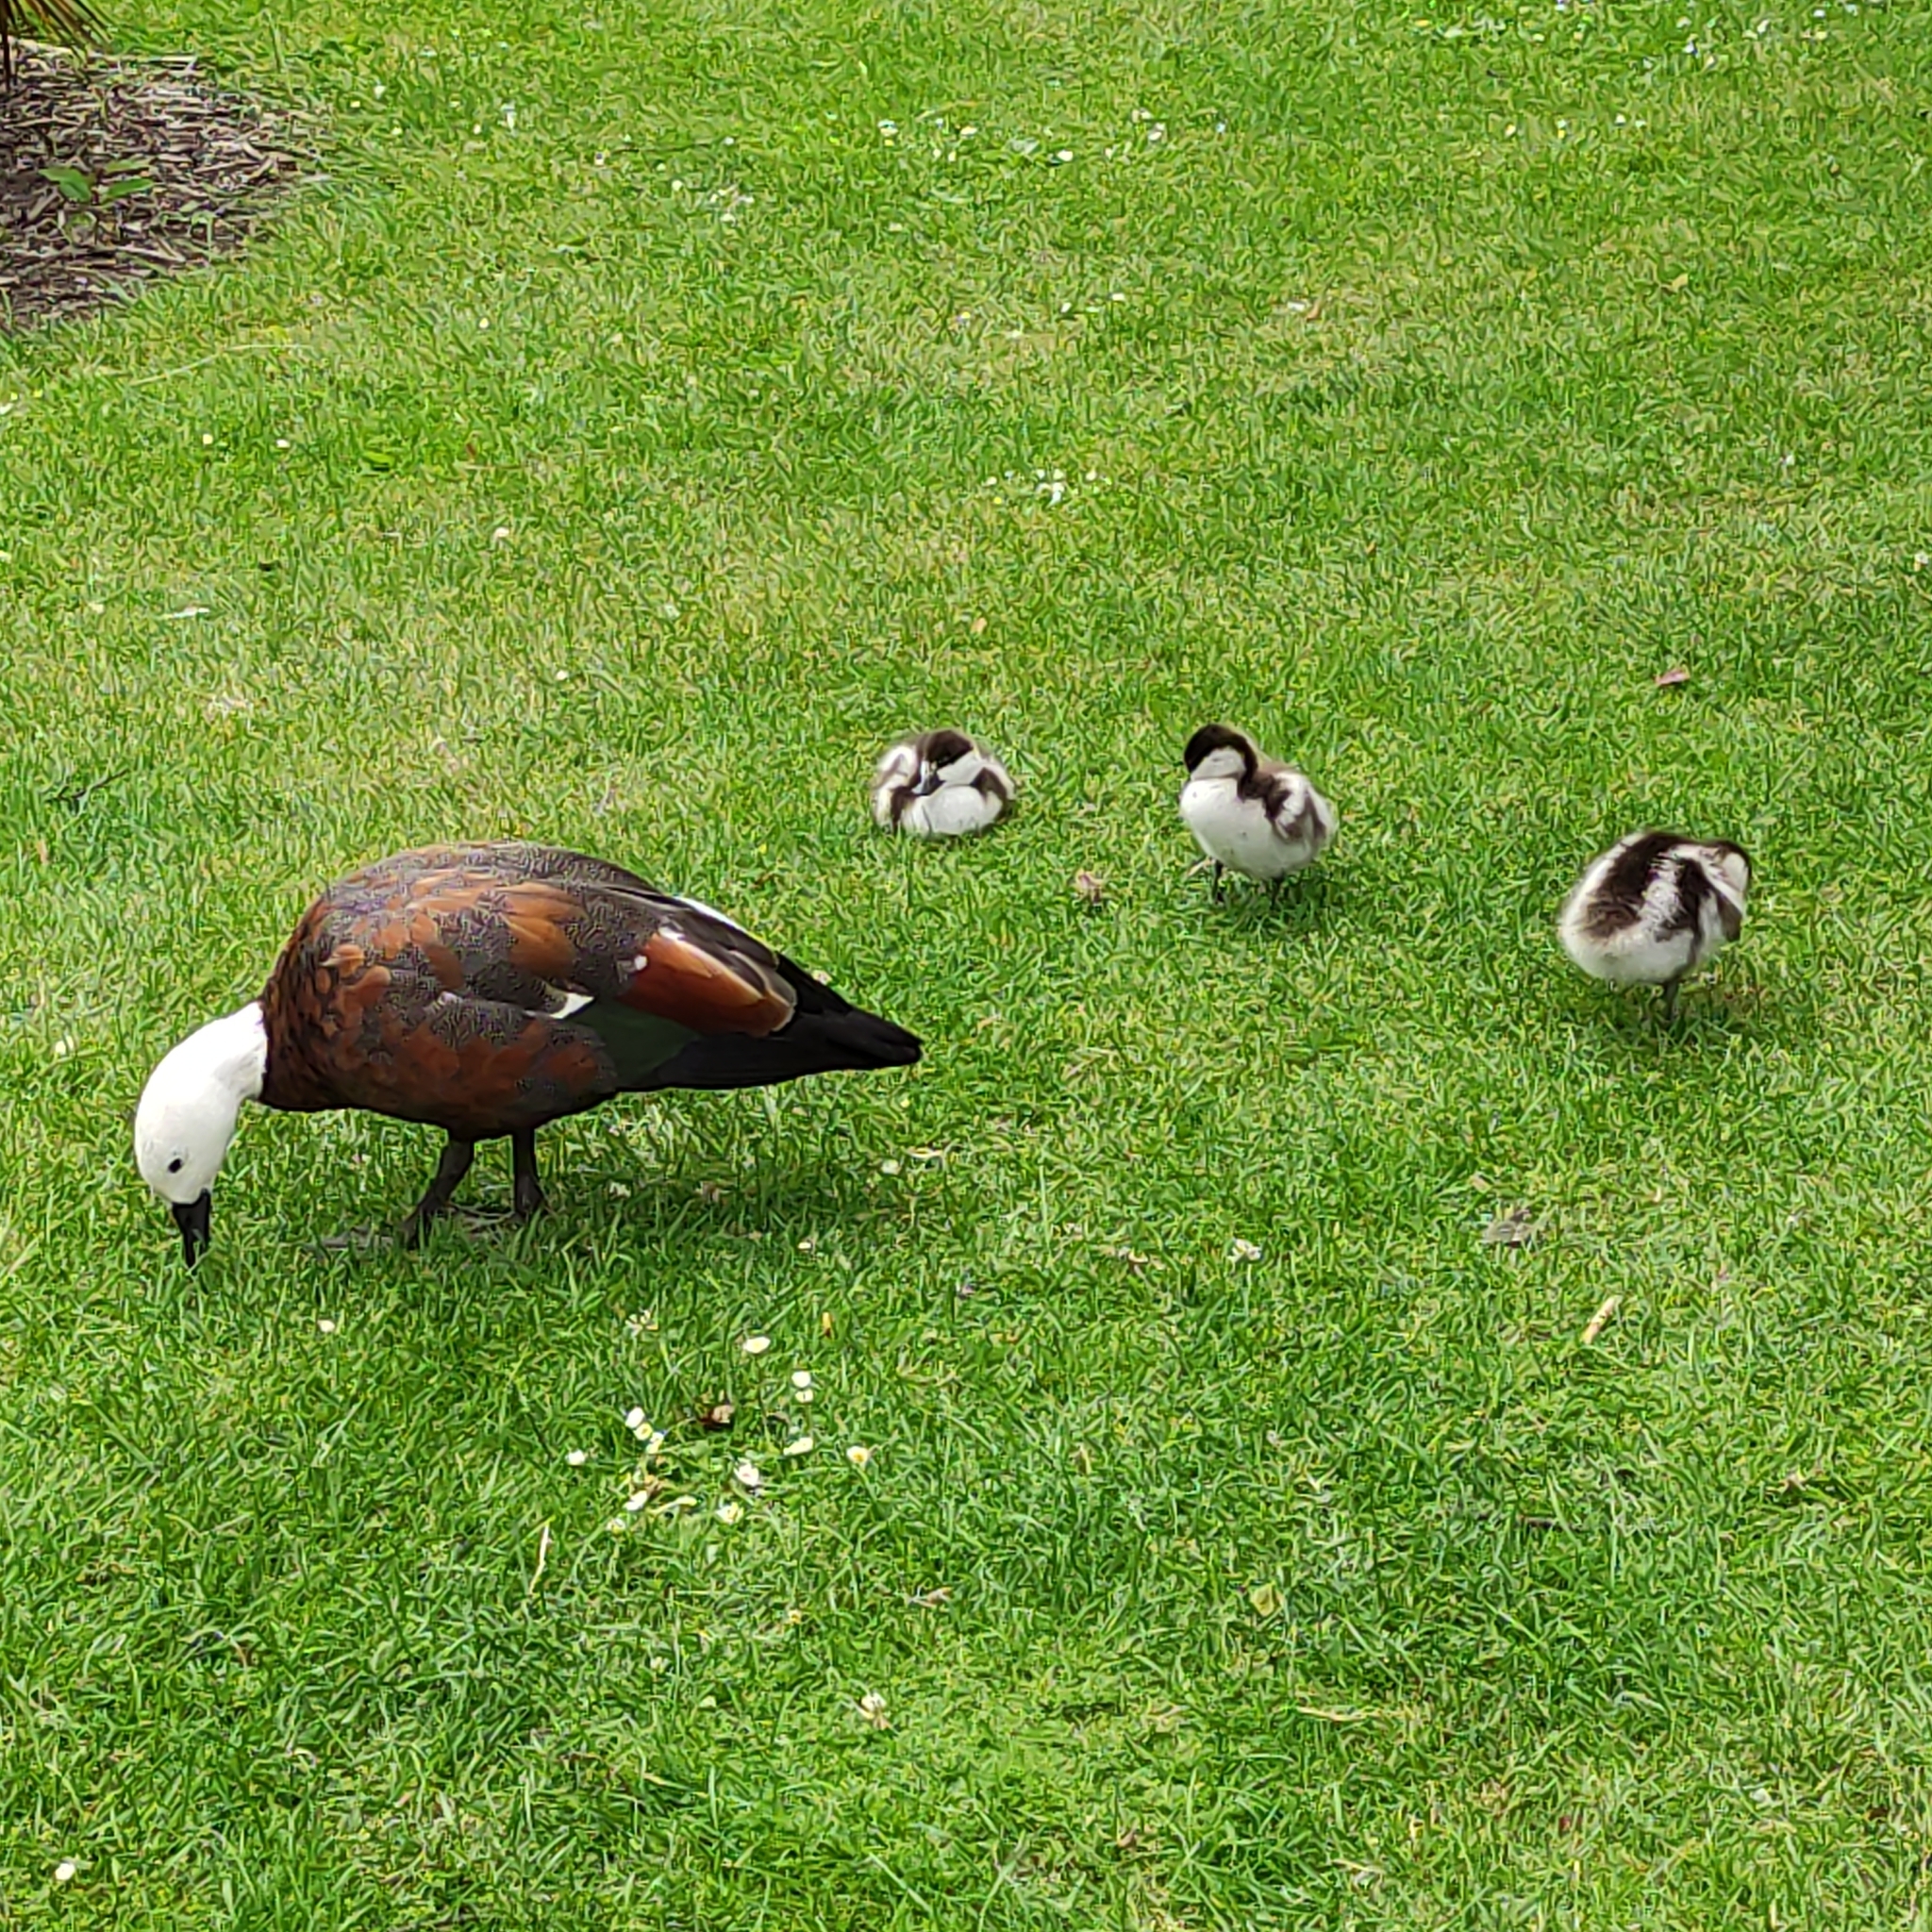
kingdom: Animalia
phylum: Chordata
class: Aves
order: Anseriformes
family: Anatidae
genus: Tadorna
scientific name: Tadorna variegata
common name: Paradise shelduck
